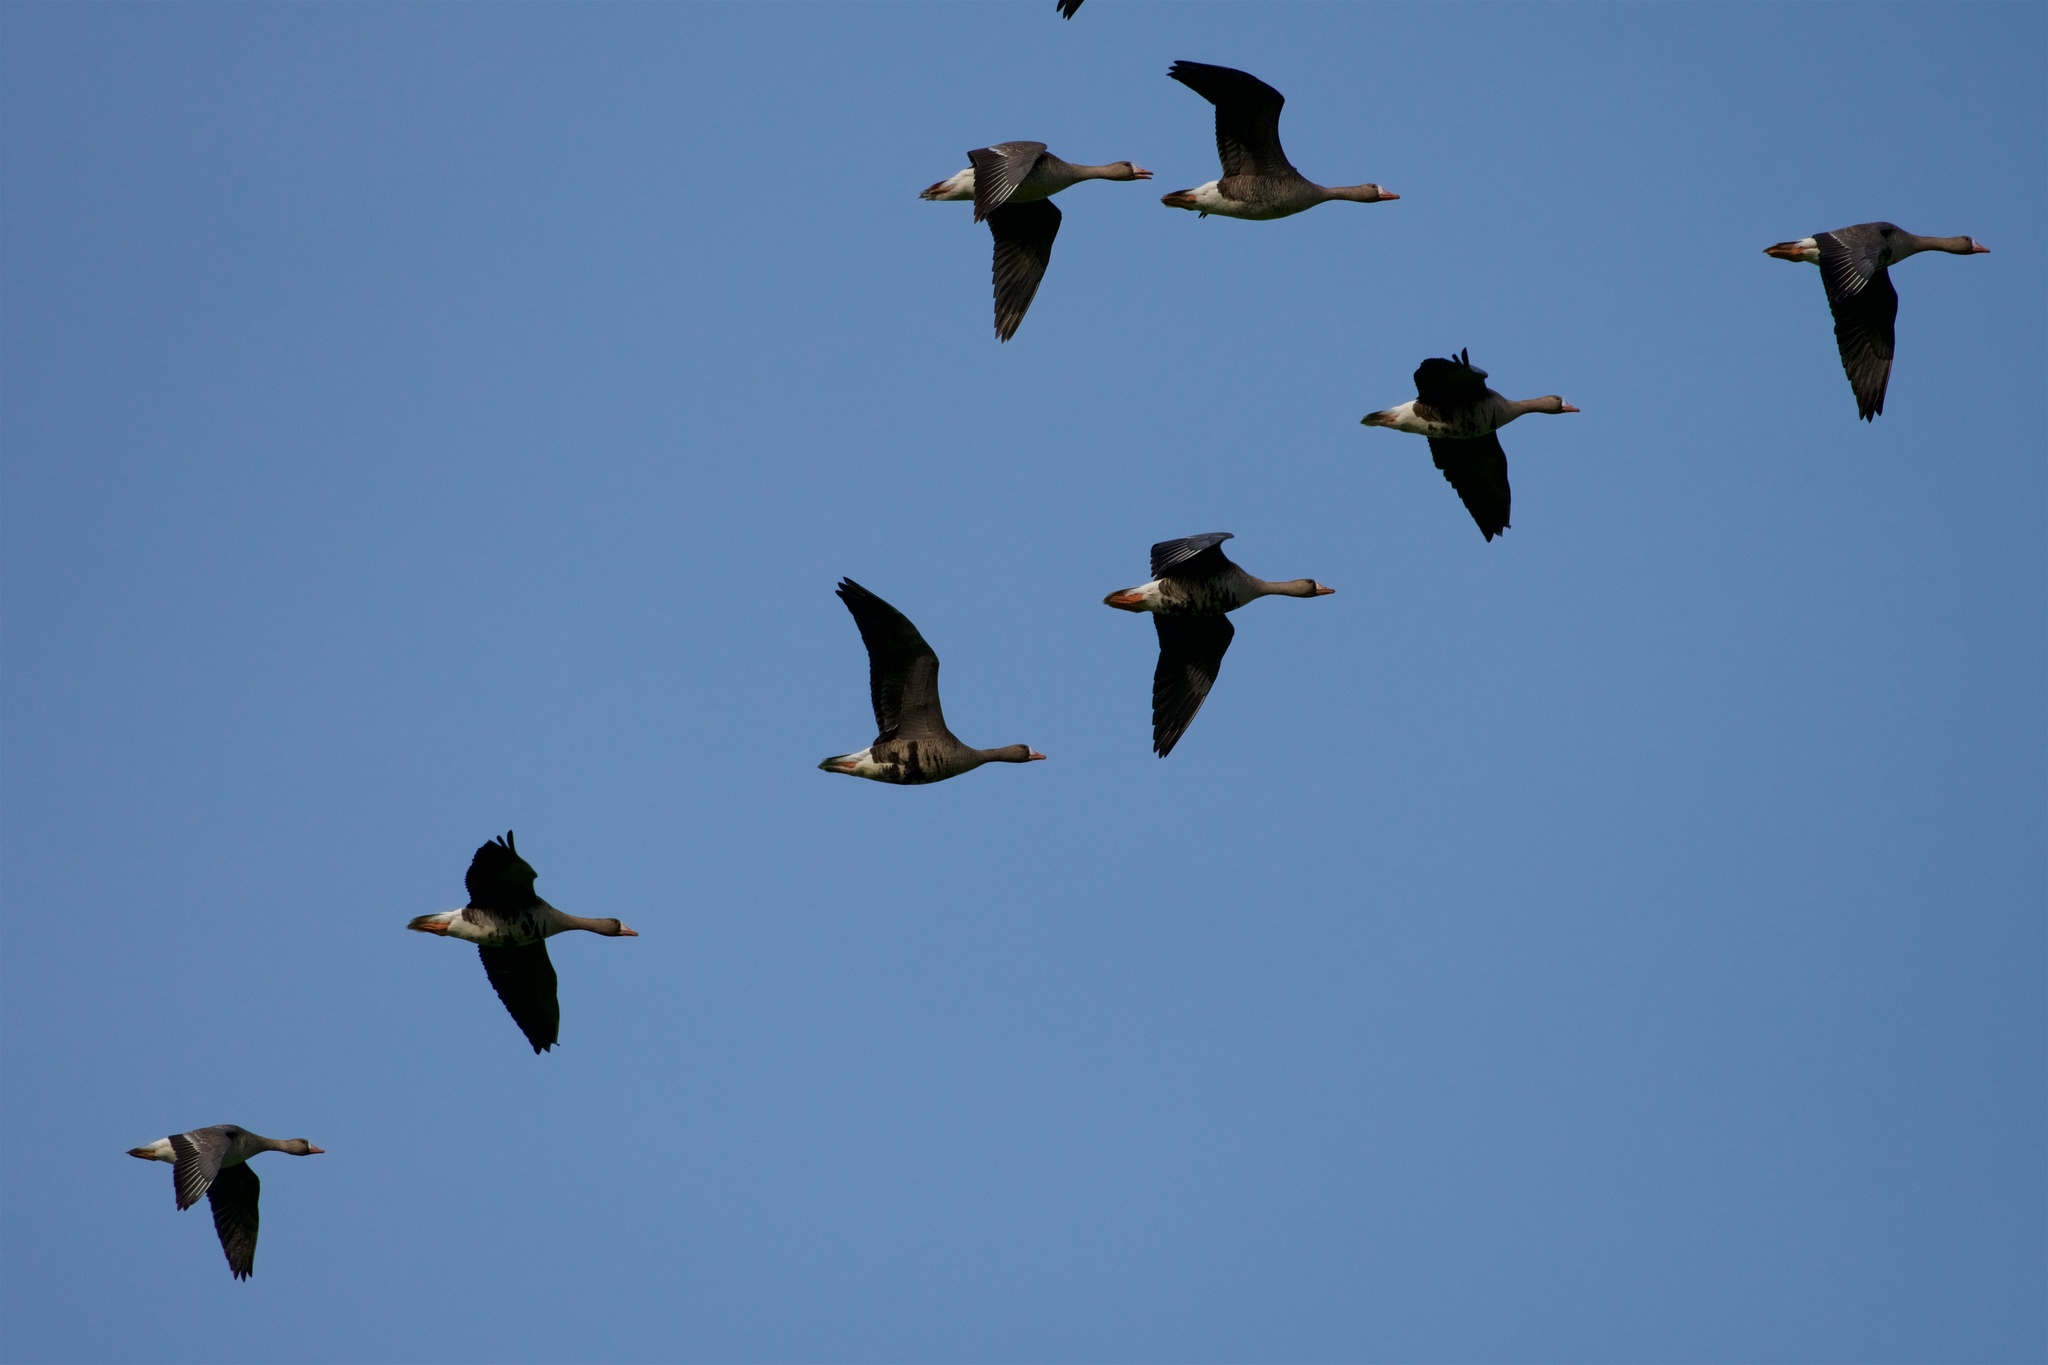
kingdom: Animalia
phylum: Chordata
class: Aves
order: Anseriformes
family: Anatidae
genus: Anser
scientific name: Anser albifrons
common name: Greater white-fronted goose
